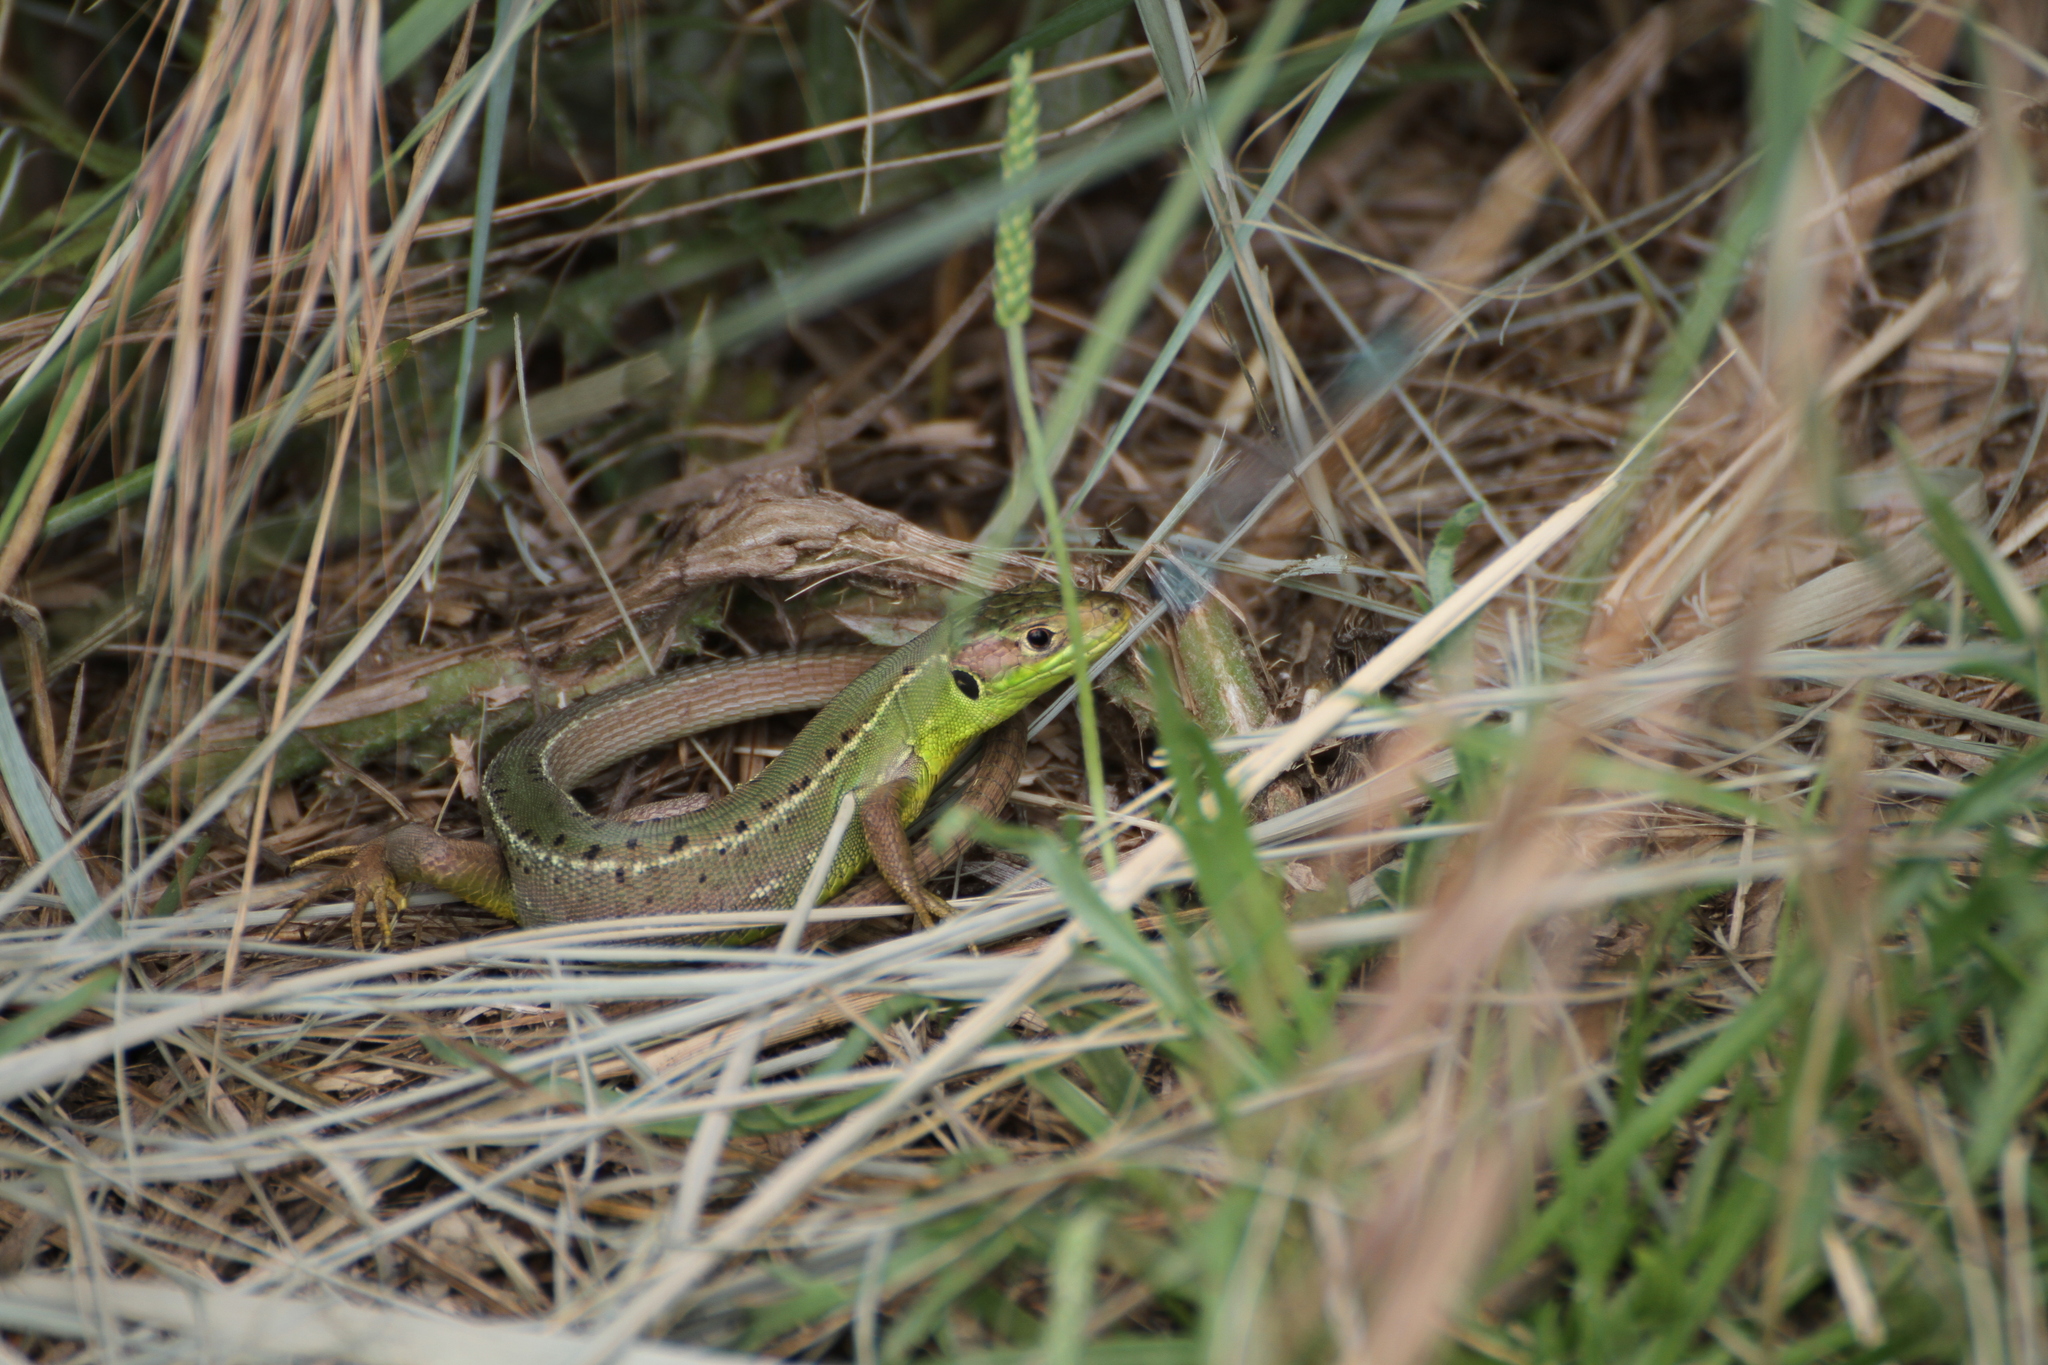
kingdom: Animalia
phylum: Chordata
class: Squamata
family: Lacertidae
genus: Lacerta
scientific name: Lacerta bilineata
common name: Western green lizard
